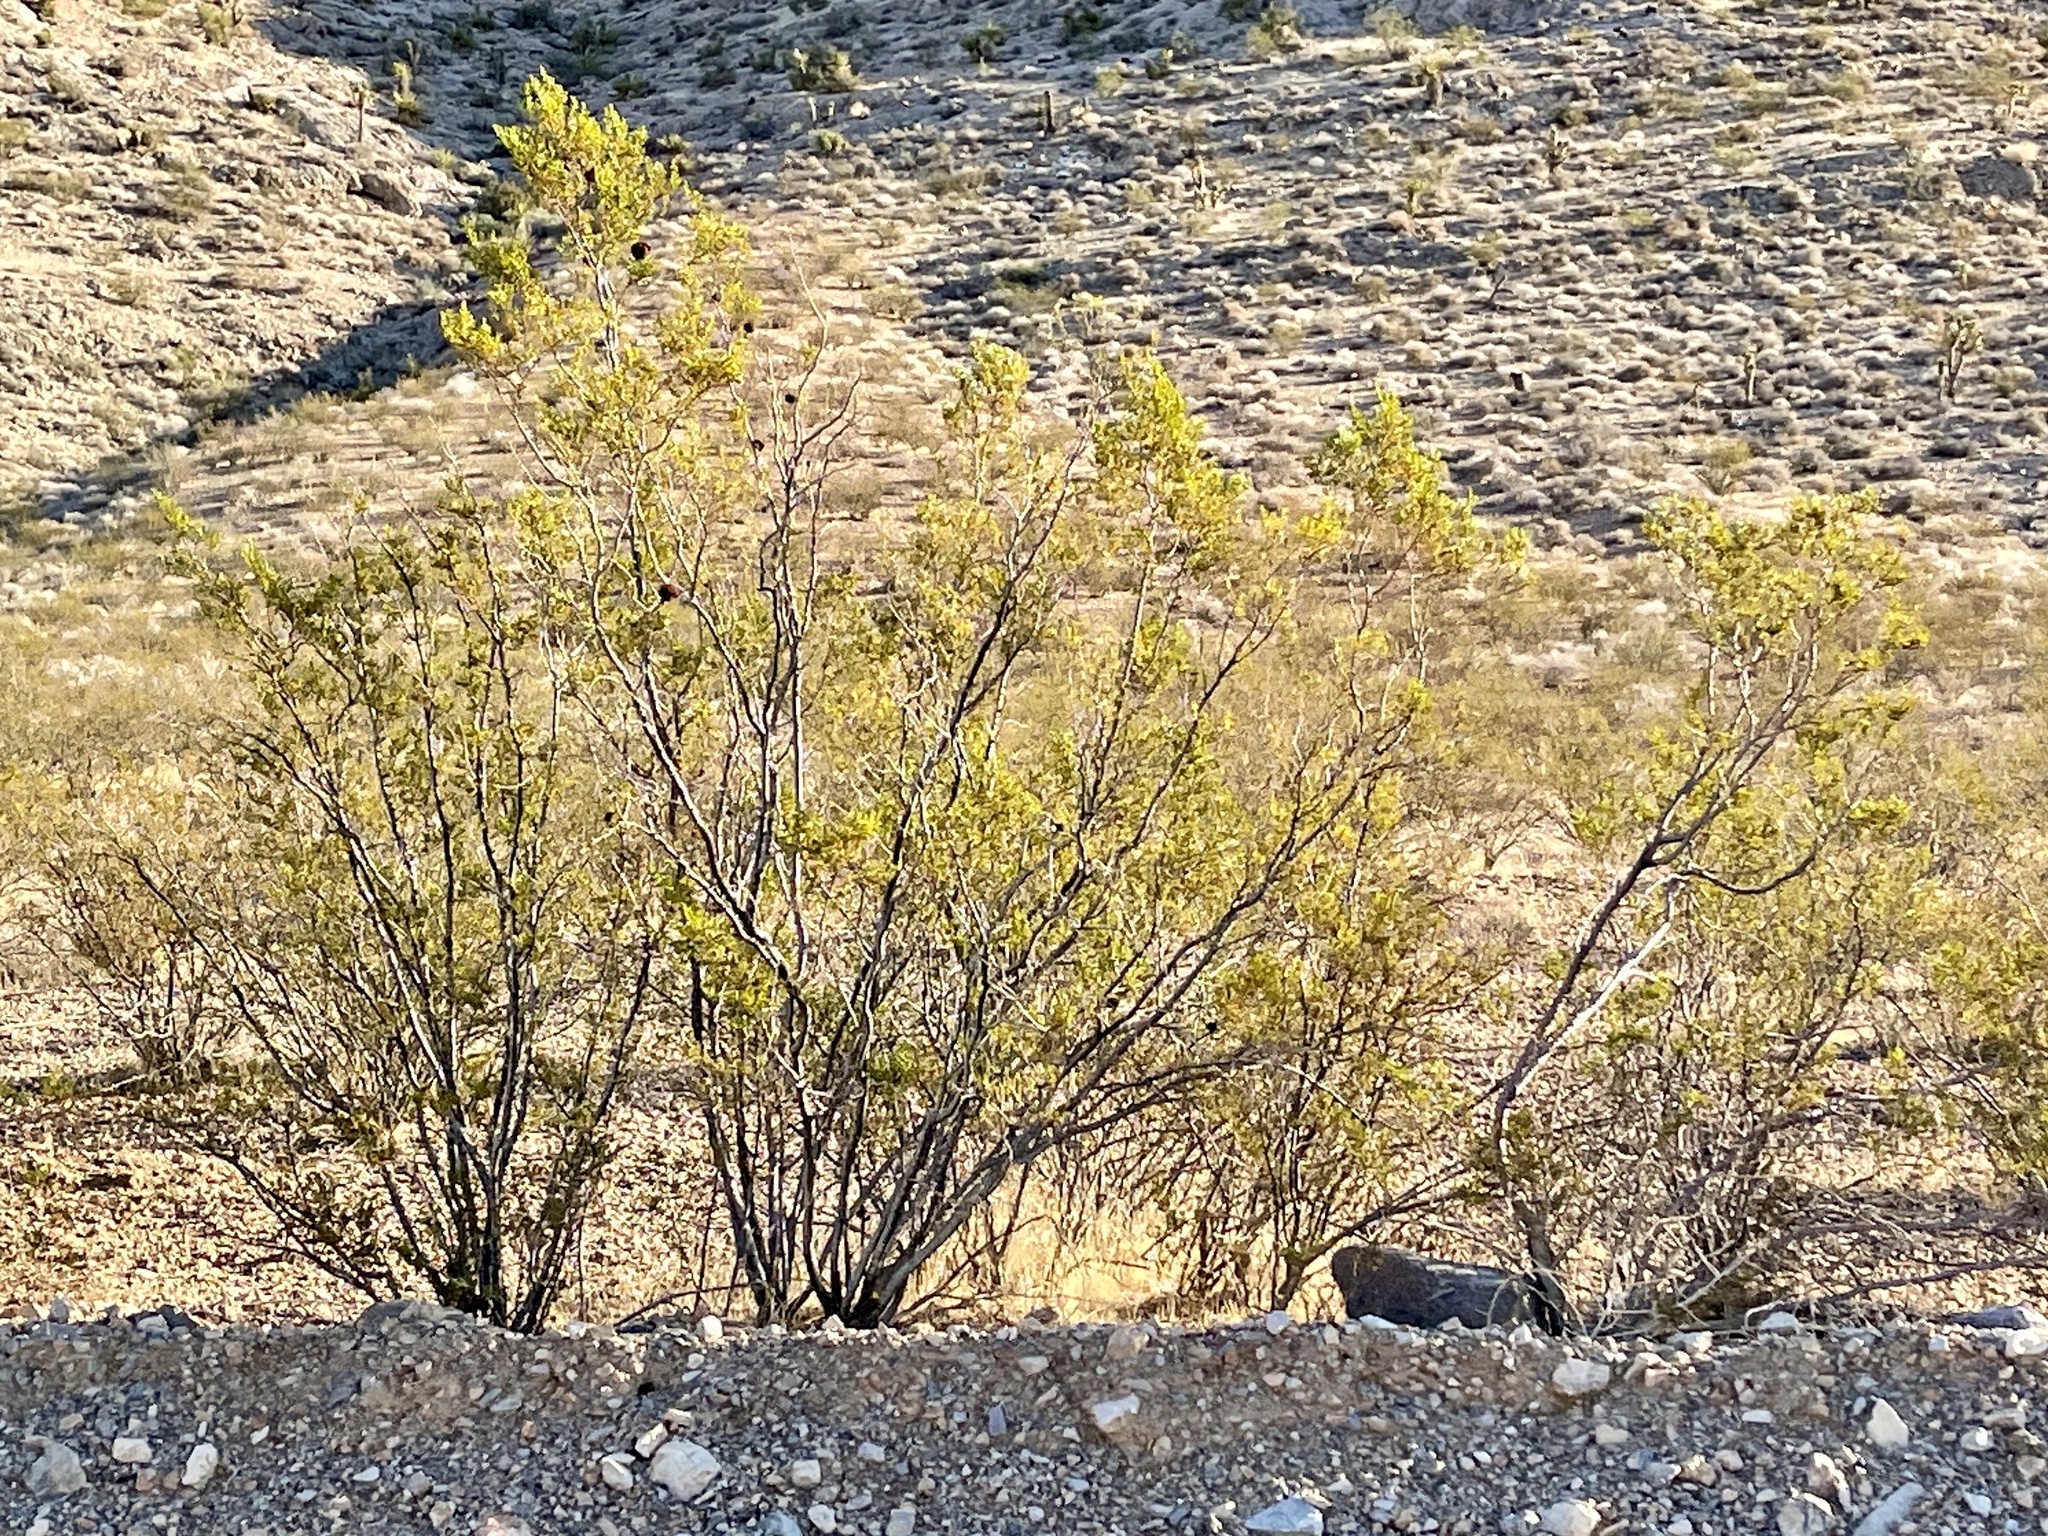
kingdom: Plantae
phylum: Tracheophyta
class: Magnoliopsida
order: Zygophyllales
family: Zygophyllaceae
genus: Larrea
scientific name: Larrea tridentata
